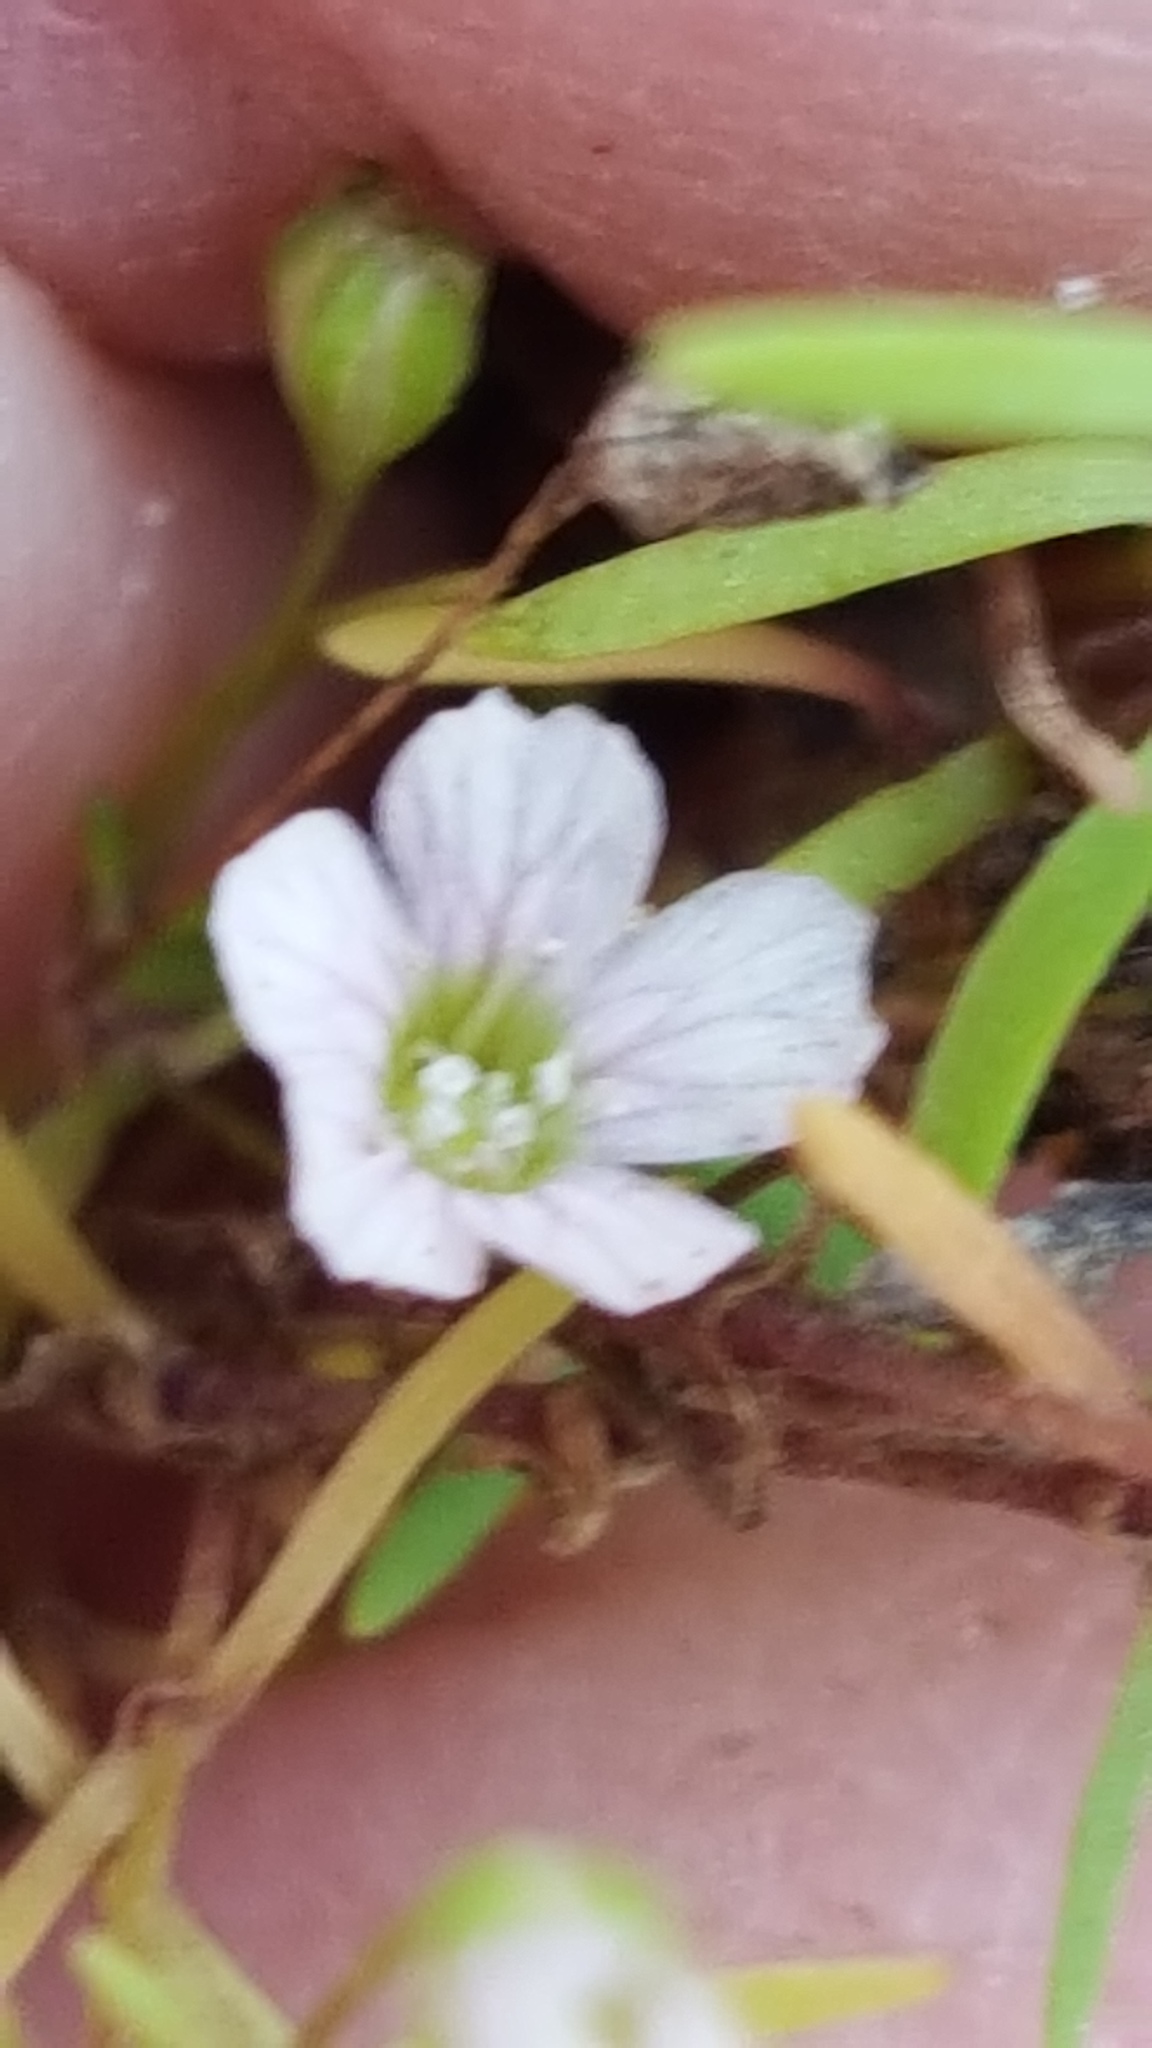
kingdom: Plantae
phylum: Tracheophyta
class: Magnoliopsida
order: Caryophyllales
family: Caryophyllaceae
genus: Psammophiliella
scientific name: Psammophiliella muralis
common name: Cushion baby's-breath
